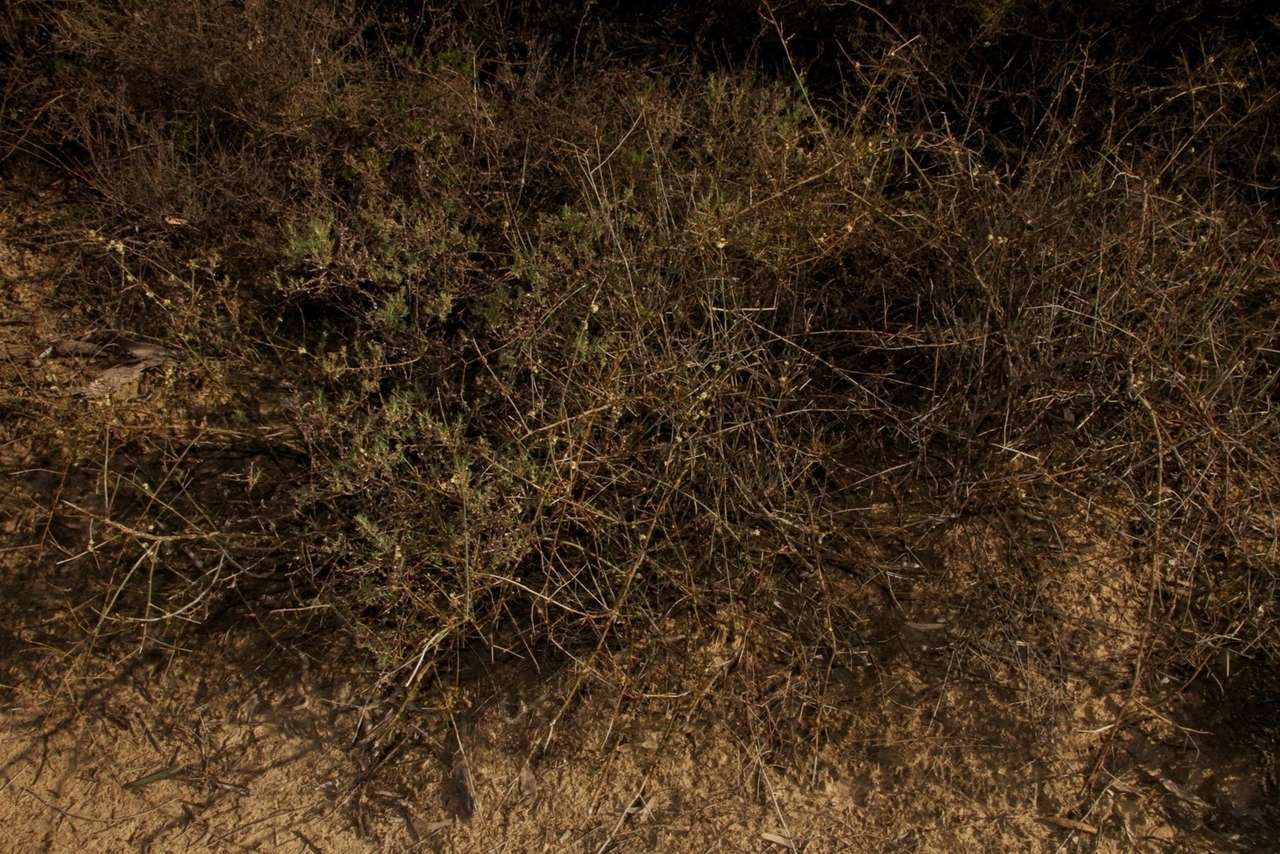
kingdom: Plantae
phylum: Tracheophyta
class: Magnoliopsida
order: Caryophyllales
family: Polygonaceae
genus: Duma
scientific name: Duma florulenta
